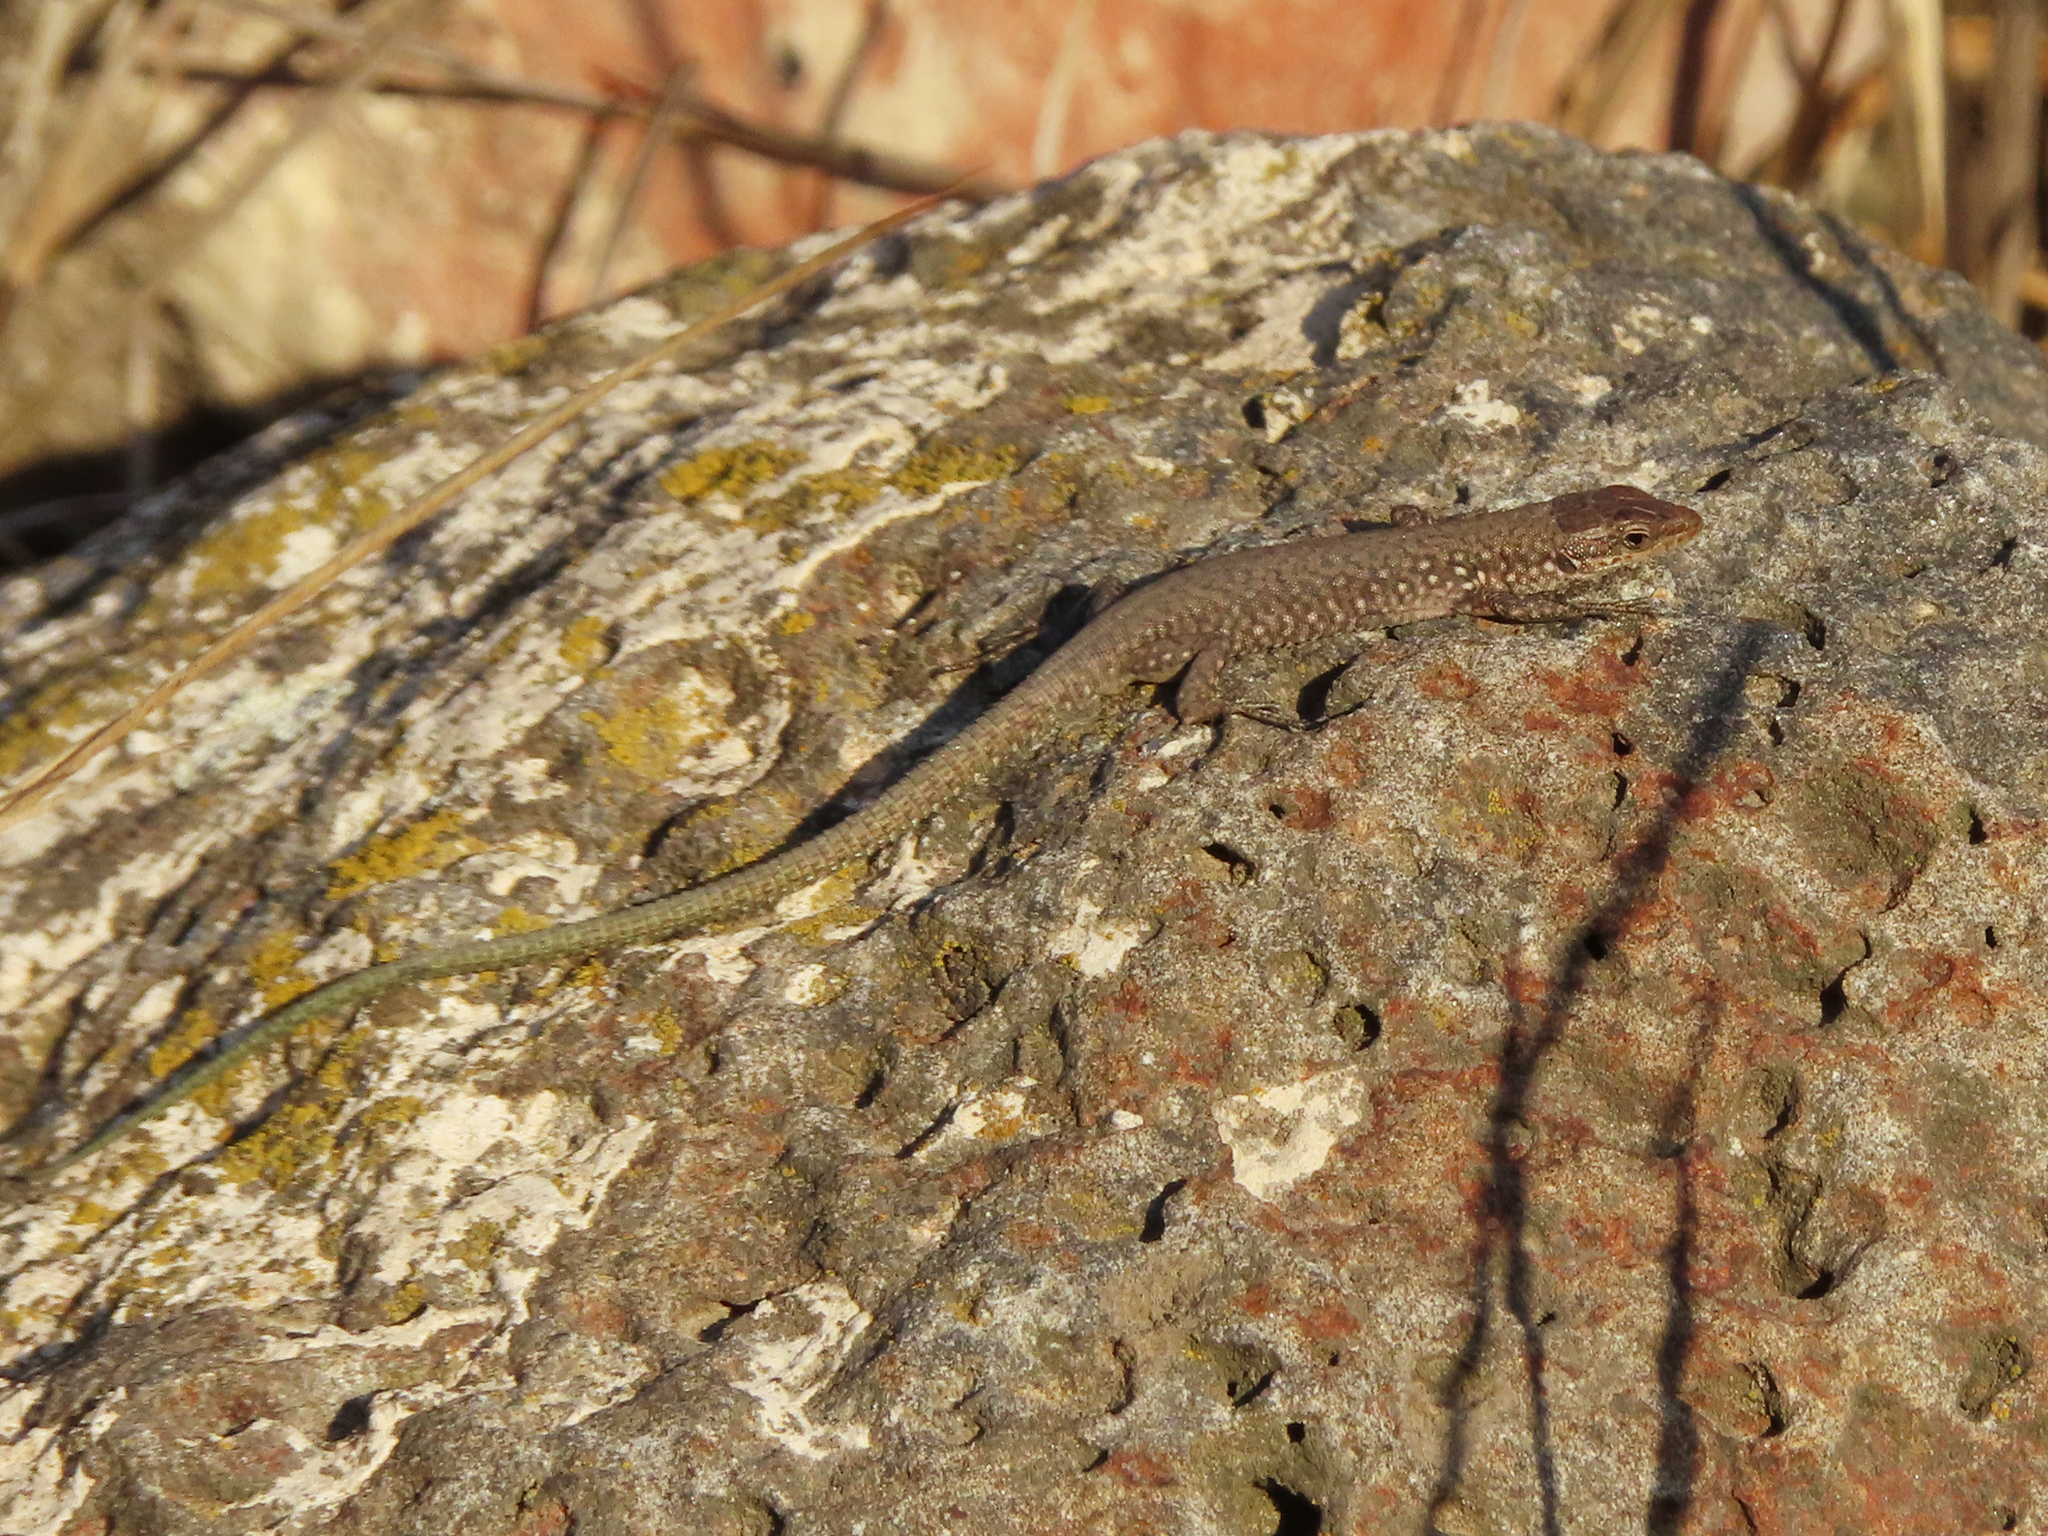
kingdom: Animalia
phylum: Chordata
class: Squamata
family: Lacertidae
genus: Darevskia
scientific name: Darevskia
